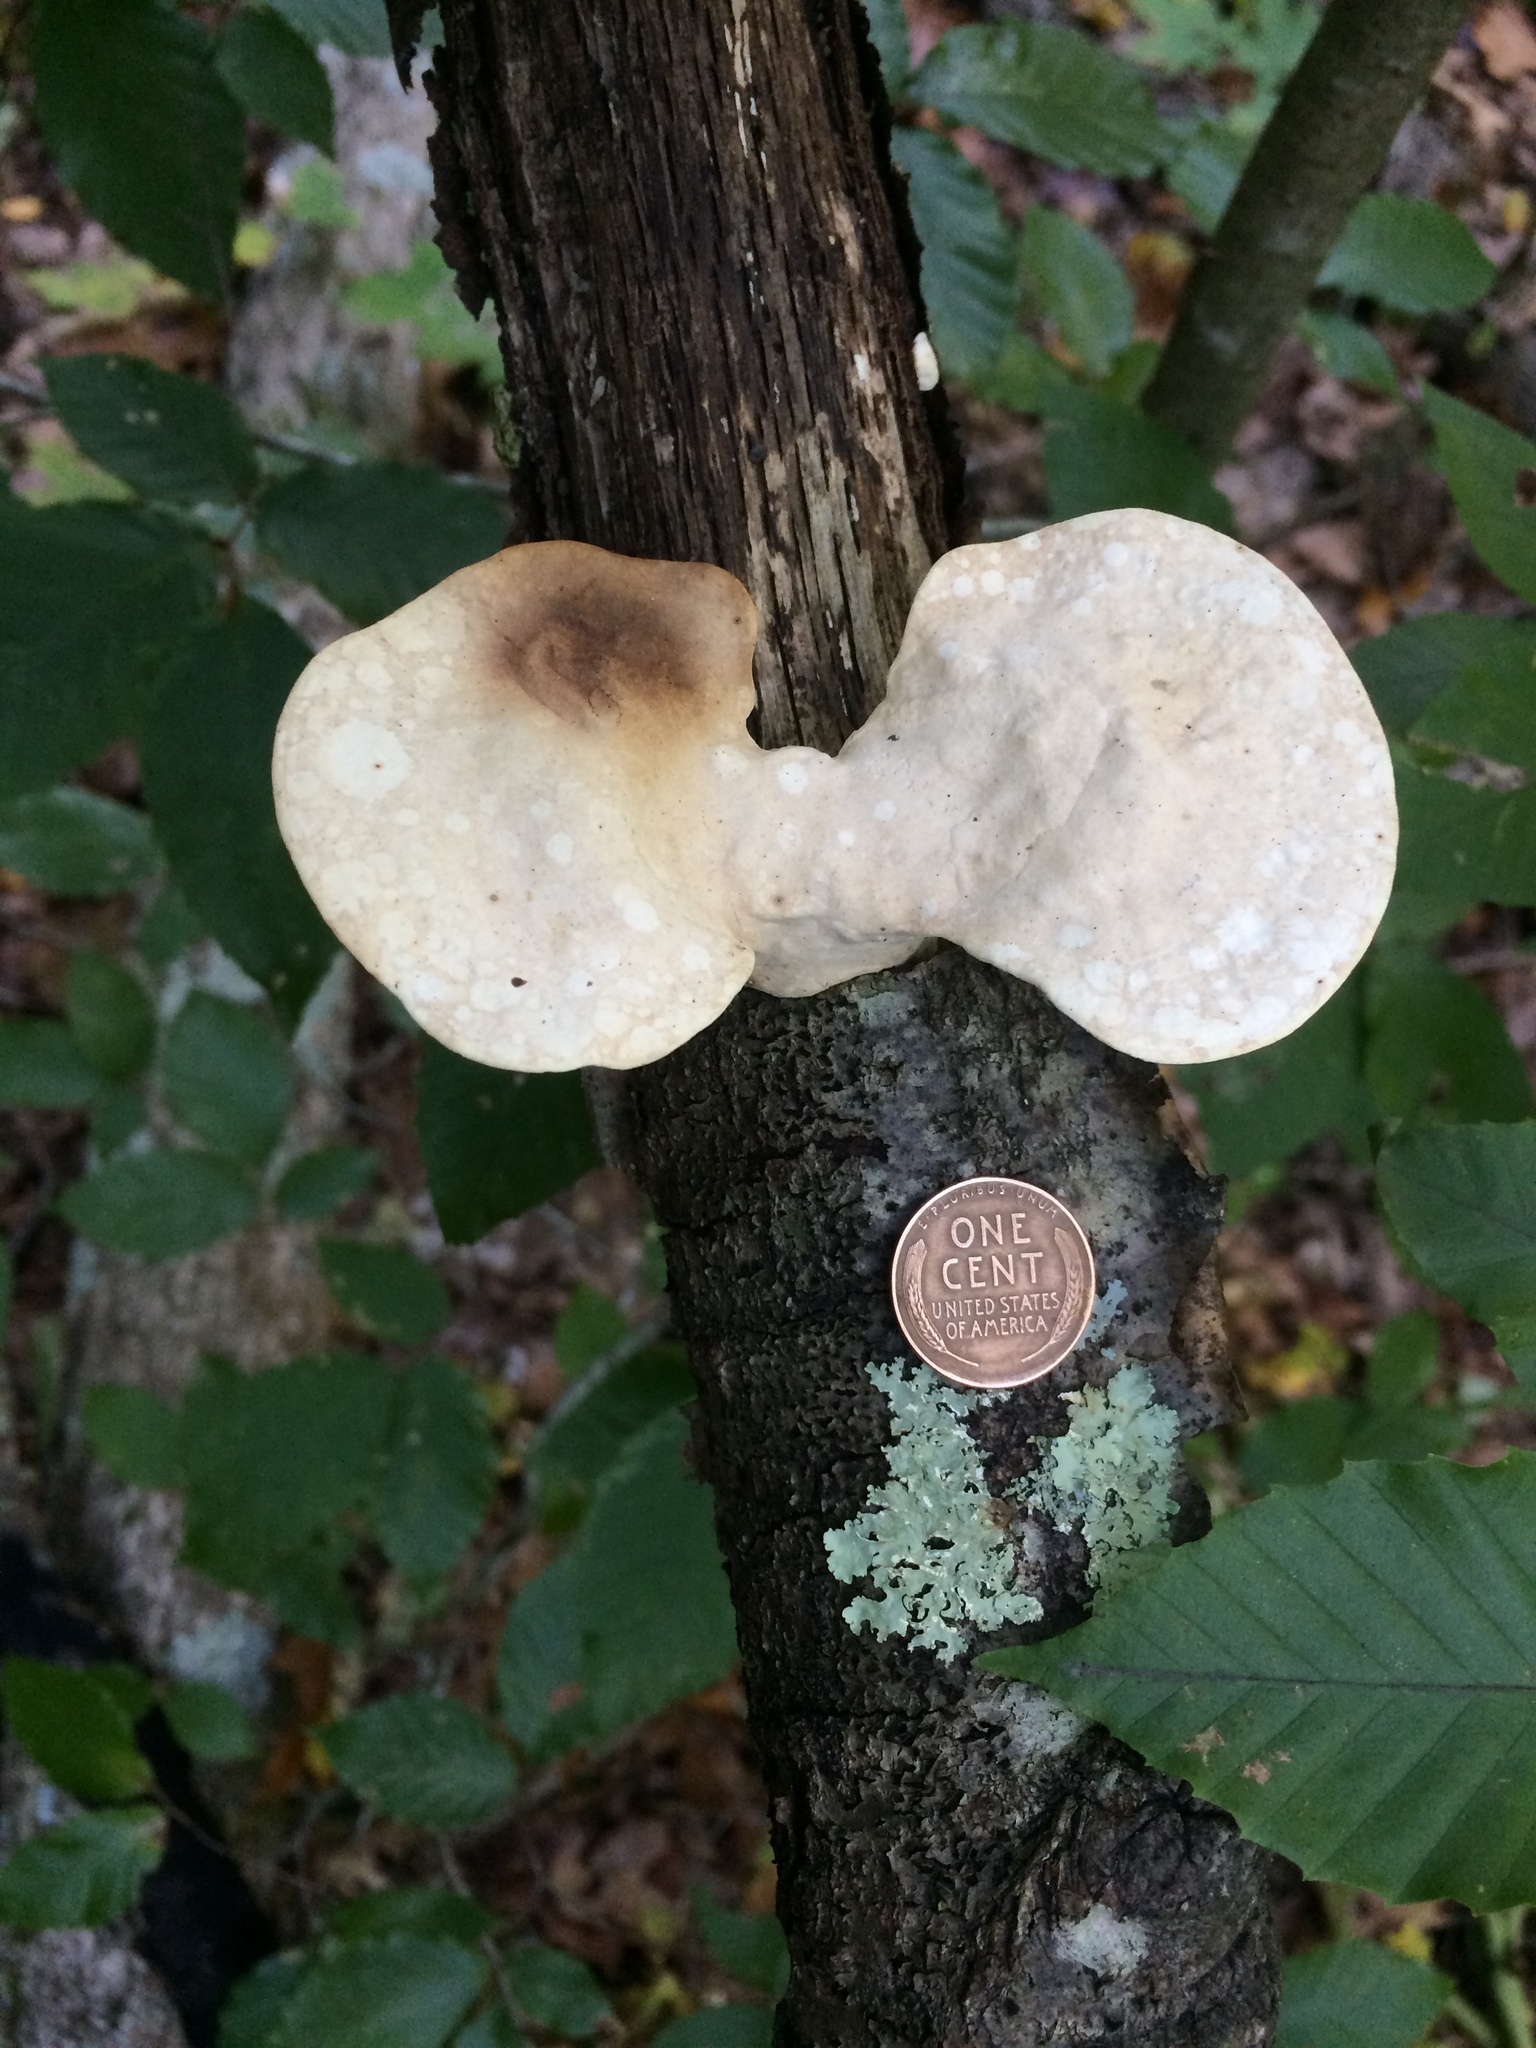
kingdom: Fungi
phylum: Basidiomycota
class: Agaricomycetes
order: Polyporales
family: Polyporaceae
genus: Trametes
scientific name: Trametes
